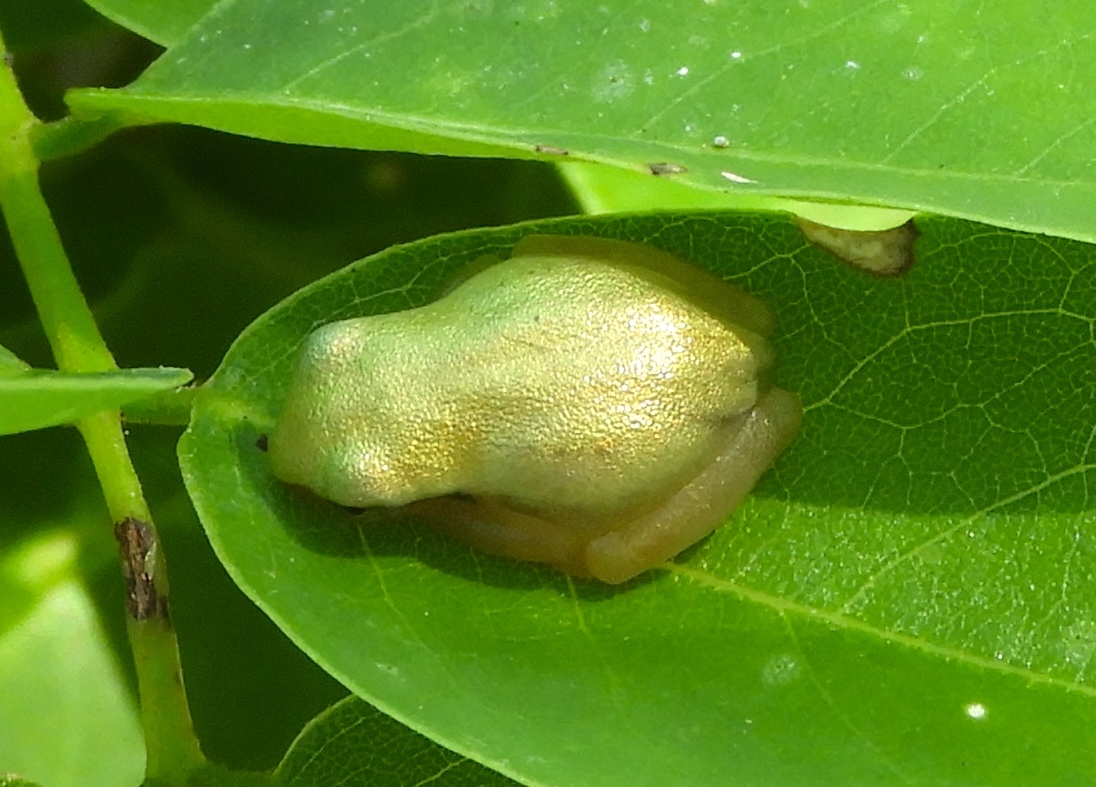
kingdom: Animalia
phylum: Chordata
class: Amphibia
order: Anura
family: Hylidae
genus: Tlalocohyla
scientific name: Tlalocohyla smithii
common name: Dwarf mexican treefrog
